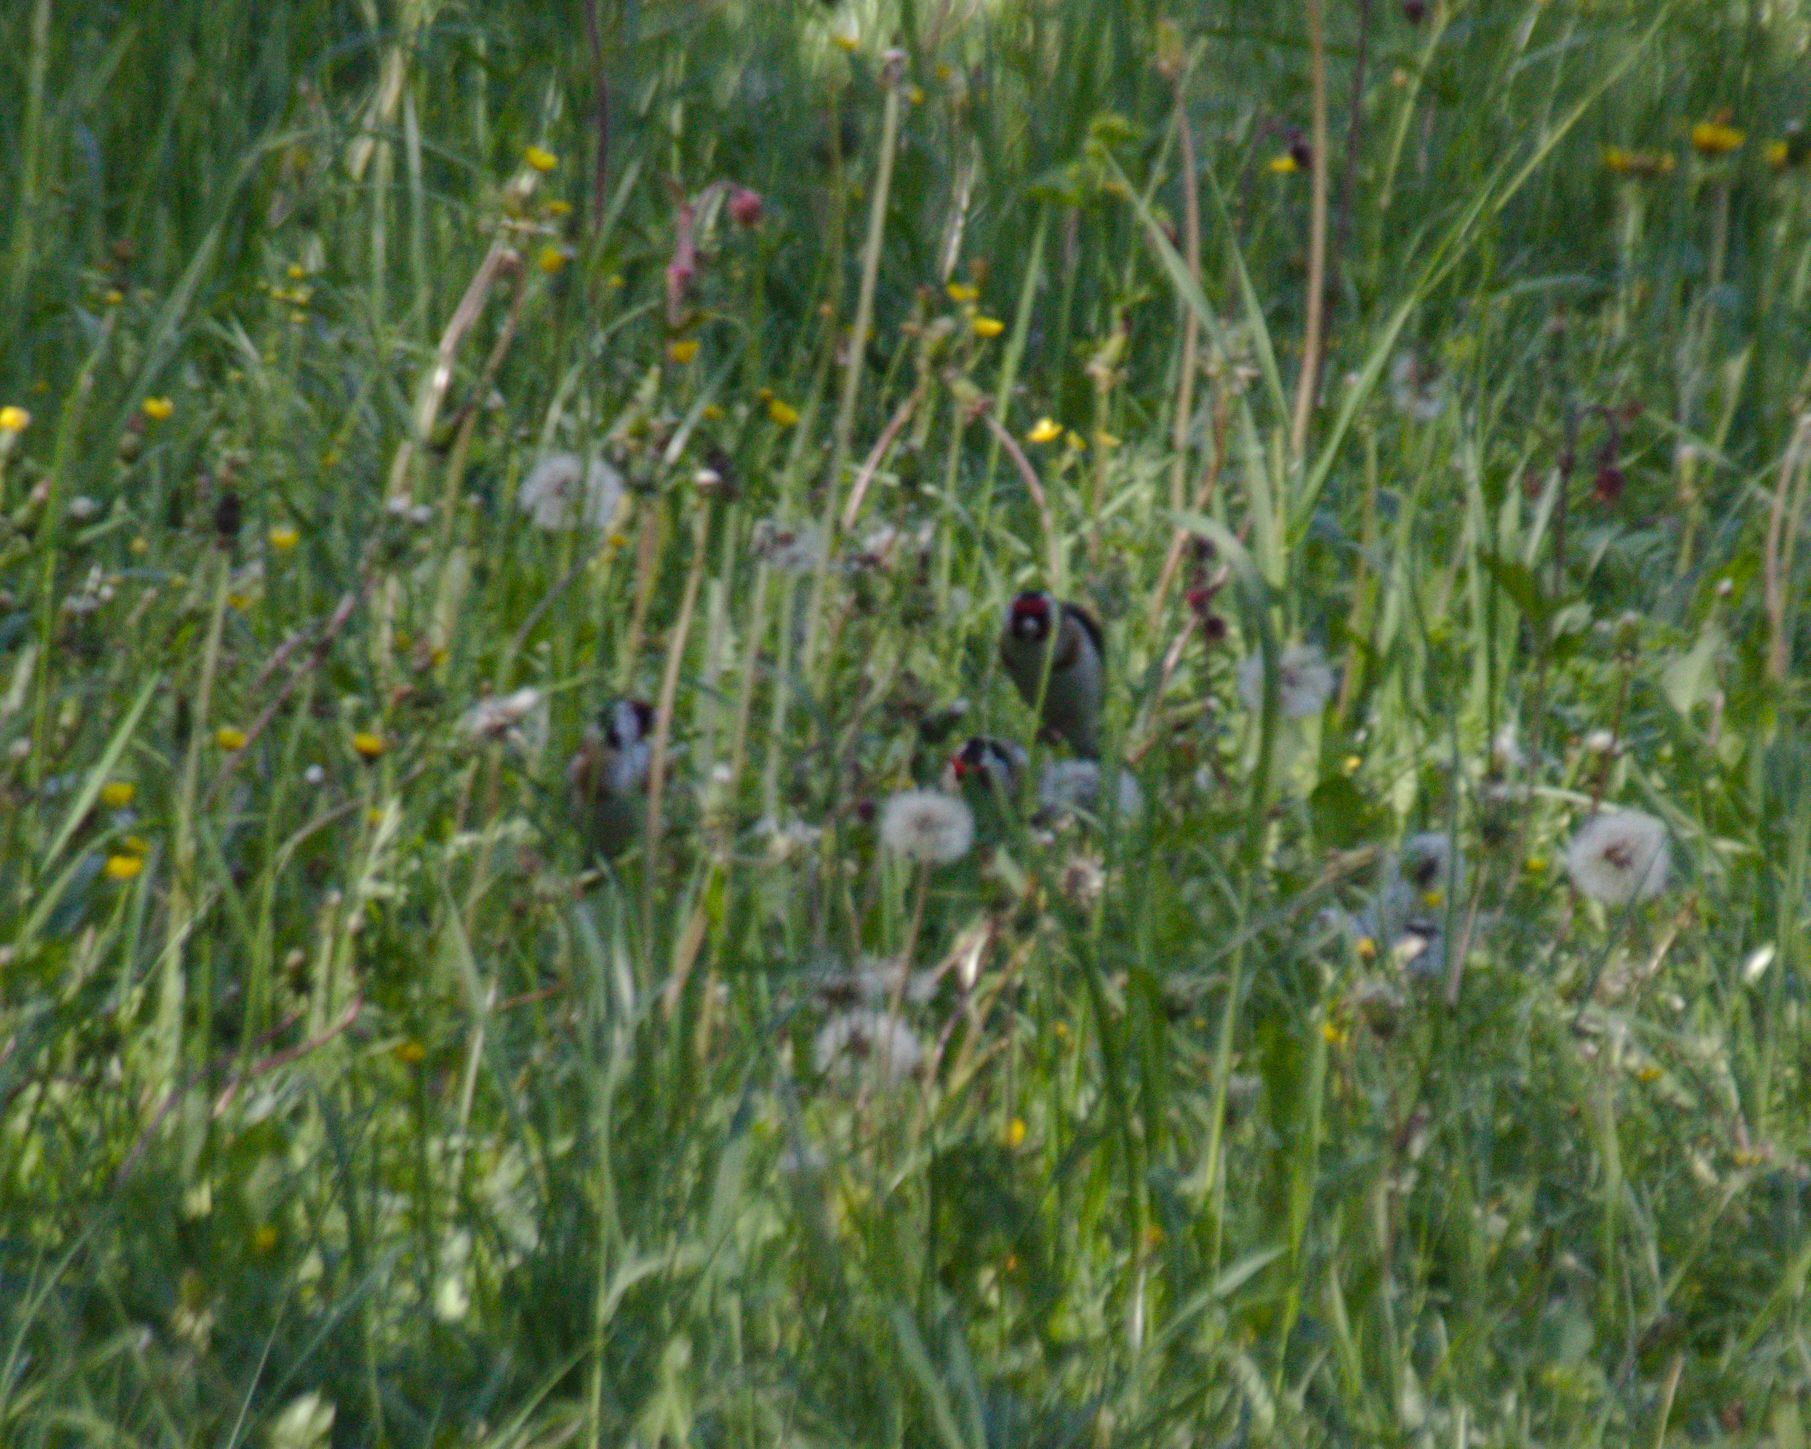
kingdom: Animalia
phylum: Chordata
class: Aves
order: Passeriformes
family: Fringillidae
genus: Carduelis
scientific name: Carduelis carduelis
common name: European goldfinch
